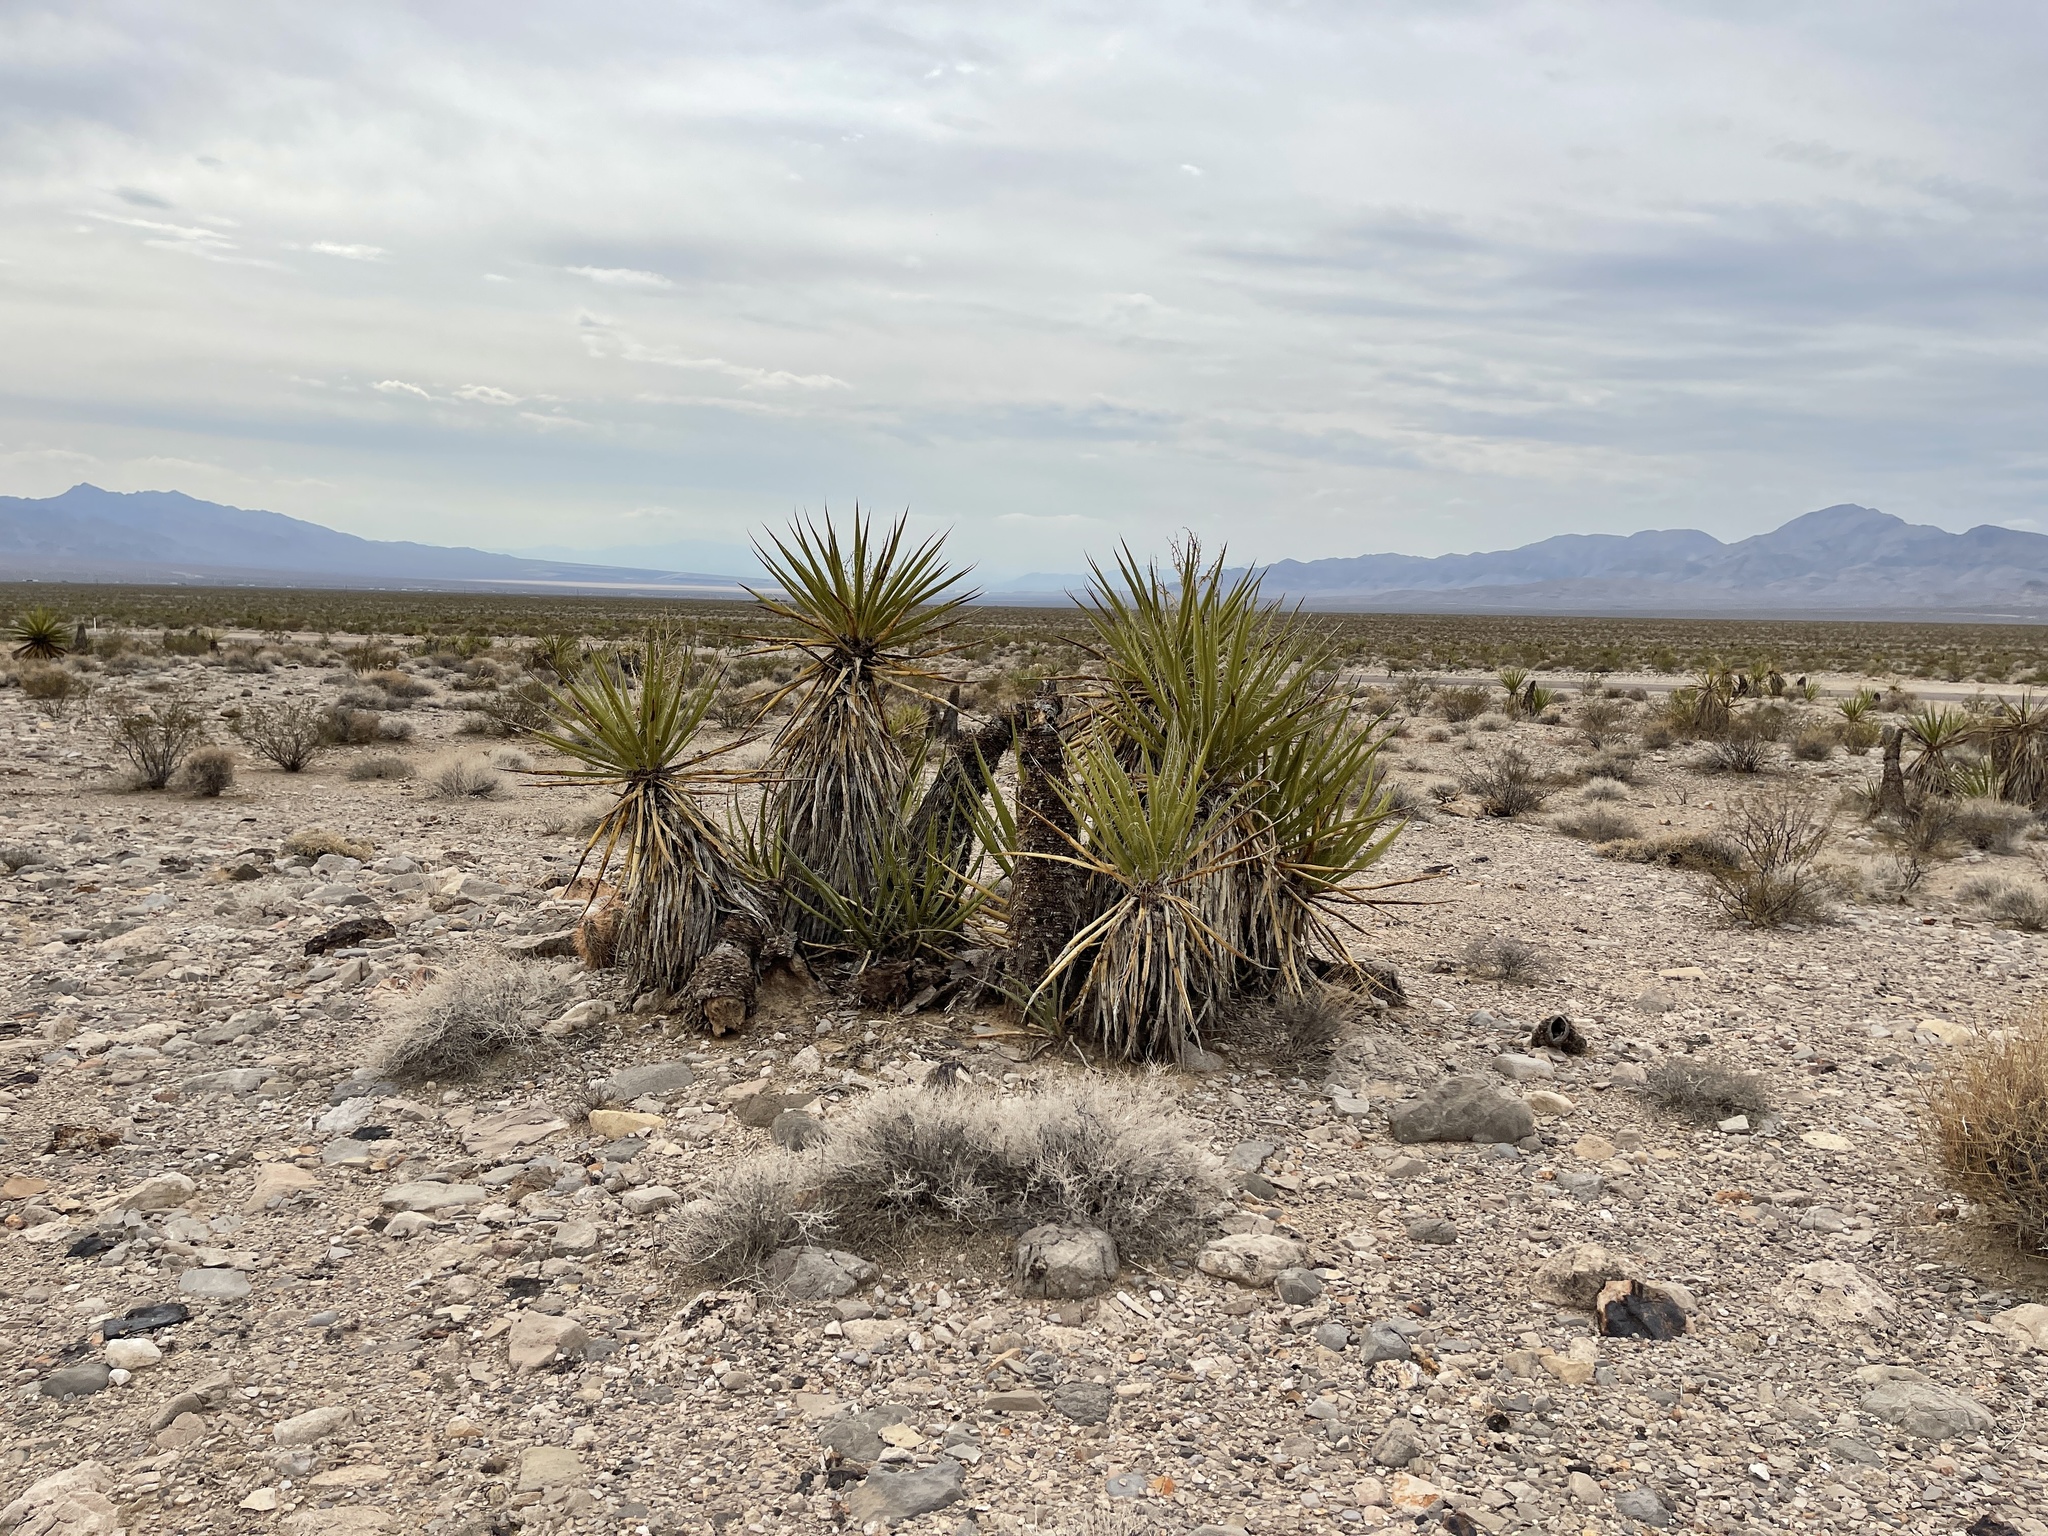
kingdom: Plantae
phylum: Tracheophyta
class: Liliopsida
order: Asparagales
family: Asparagaceae
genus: Yucca
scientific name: Yucca schidigera
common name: Mojave yucca
